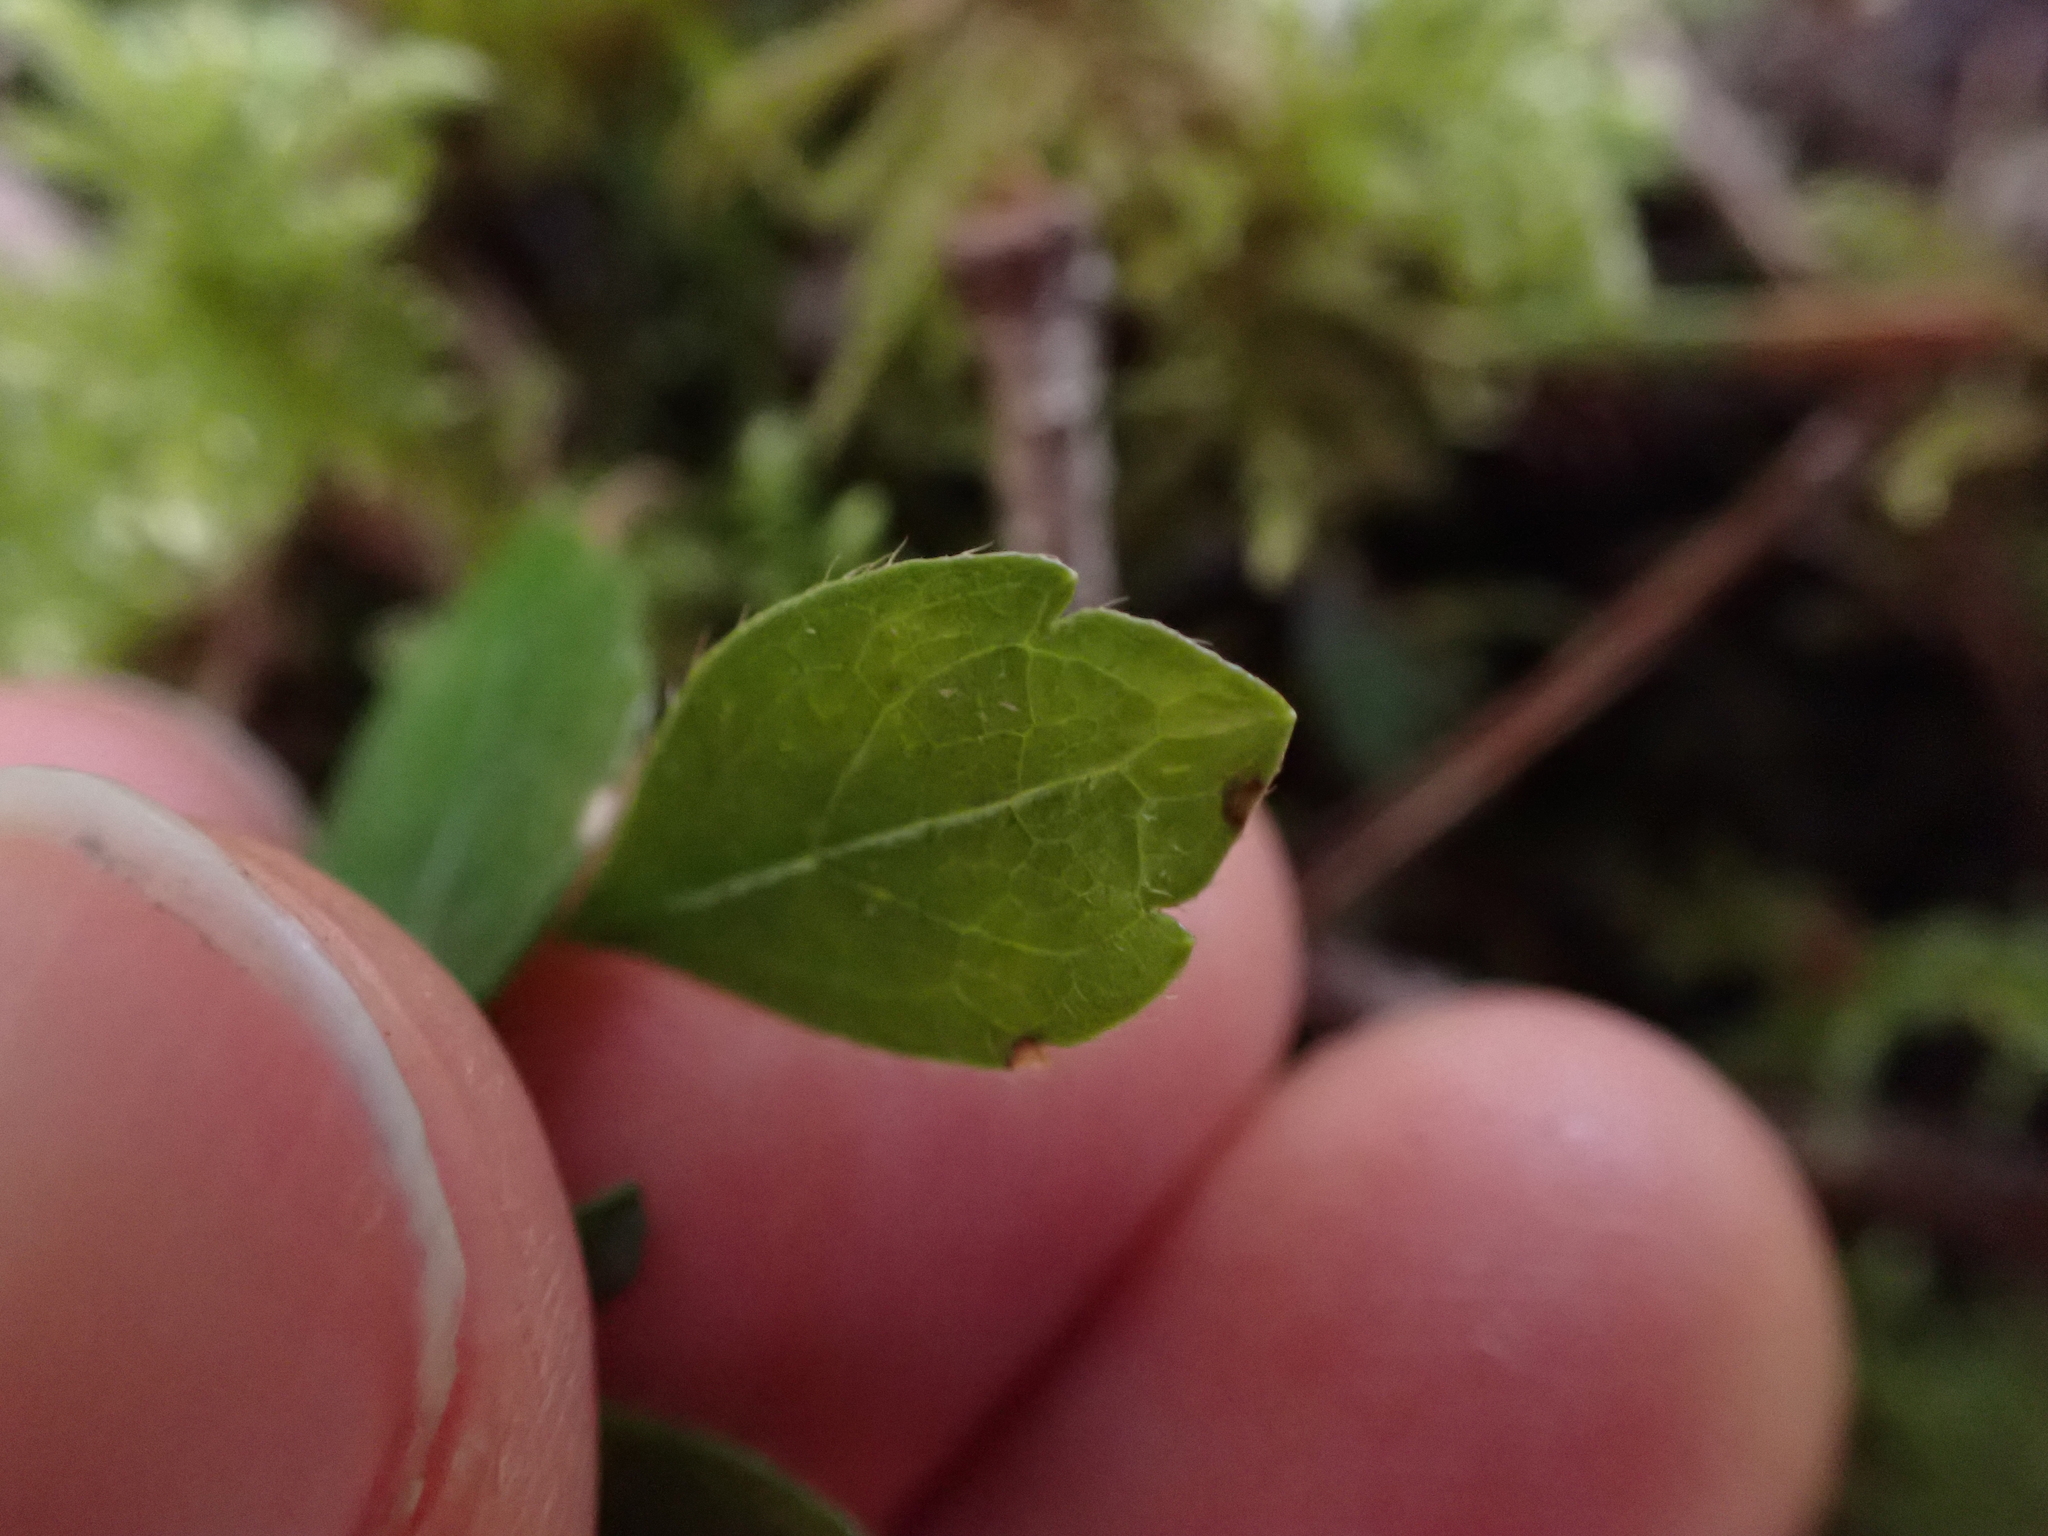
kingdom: Plantae
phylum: Tracheophyta
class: Magnoliopsida
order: Dipsacales
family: Caprifoliaceae
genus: Linnaea
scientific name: Linnaea borealis
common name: Twinflower
